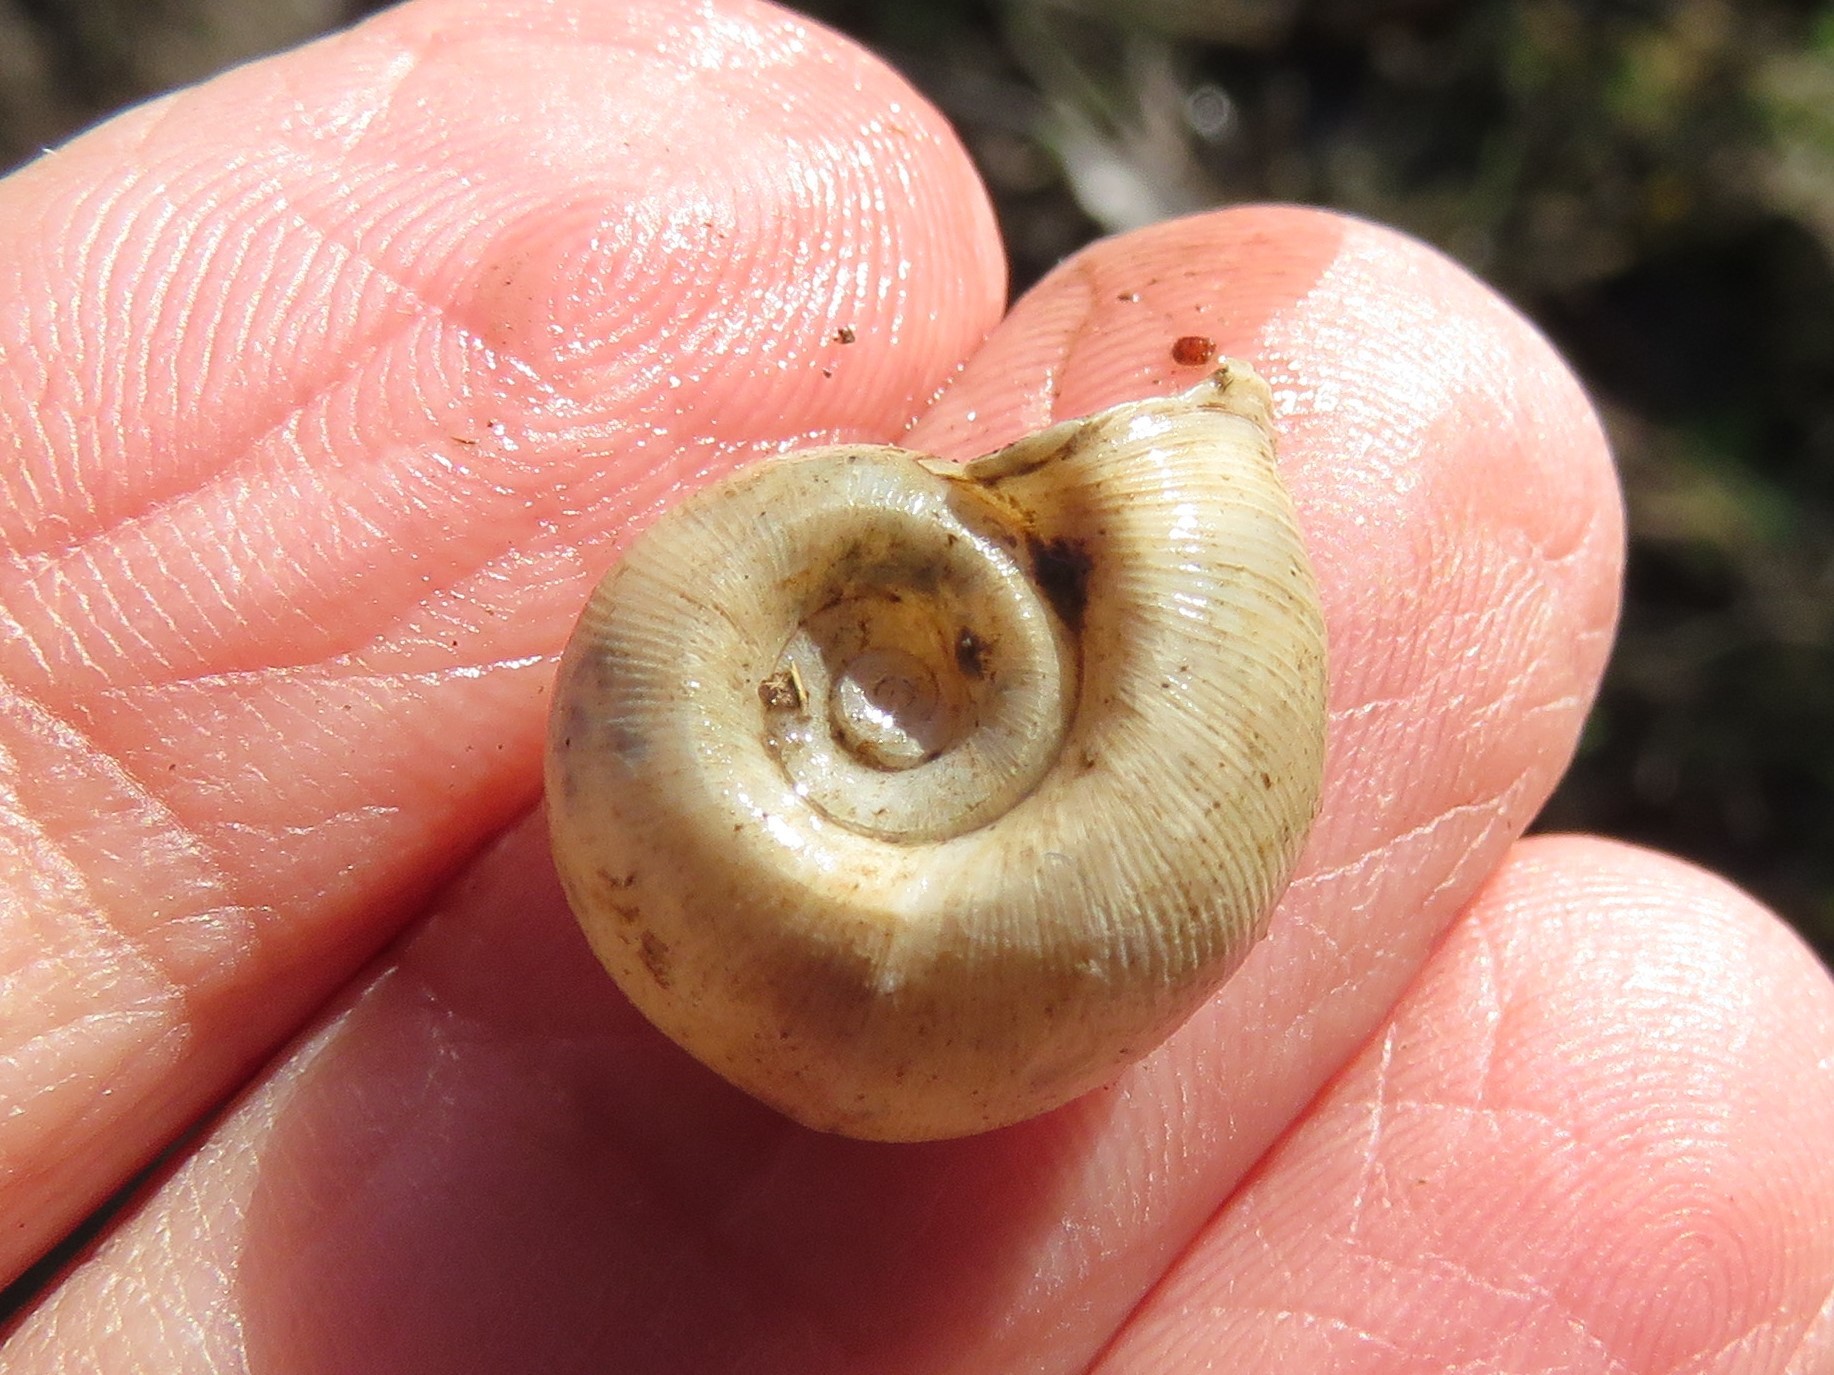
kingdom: Animalia
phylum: Mollusca
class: Gastropoda
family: Planorbidae
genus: Planorbella
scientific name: Planorbella trivolvis
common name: Marsh rams-horn
